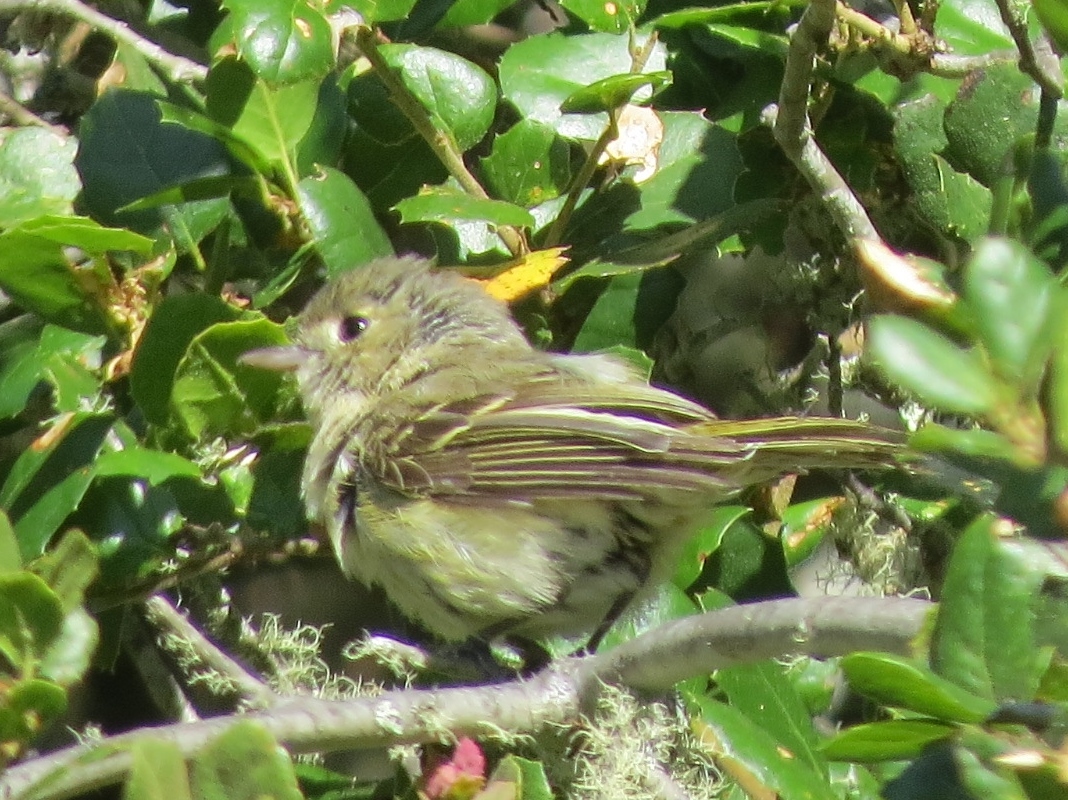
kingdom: Animalia
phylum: Chordata
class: Aves
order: Passeriformes
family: Vireonidae
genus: Vireo
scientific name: Vireo huttoni
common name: Hutton's vireo
